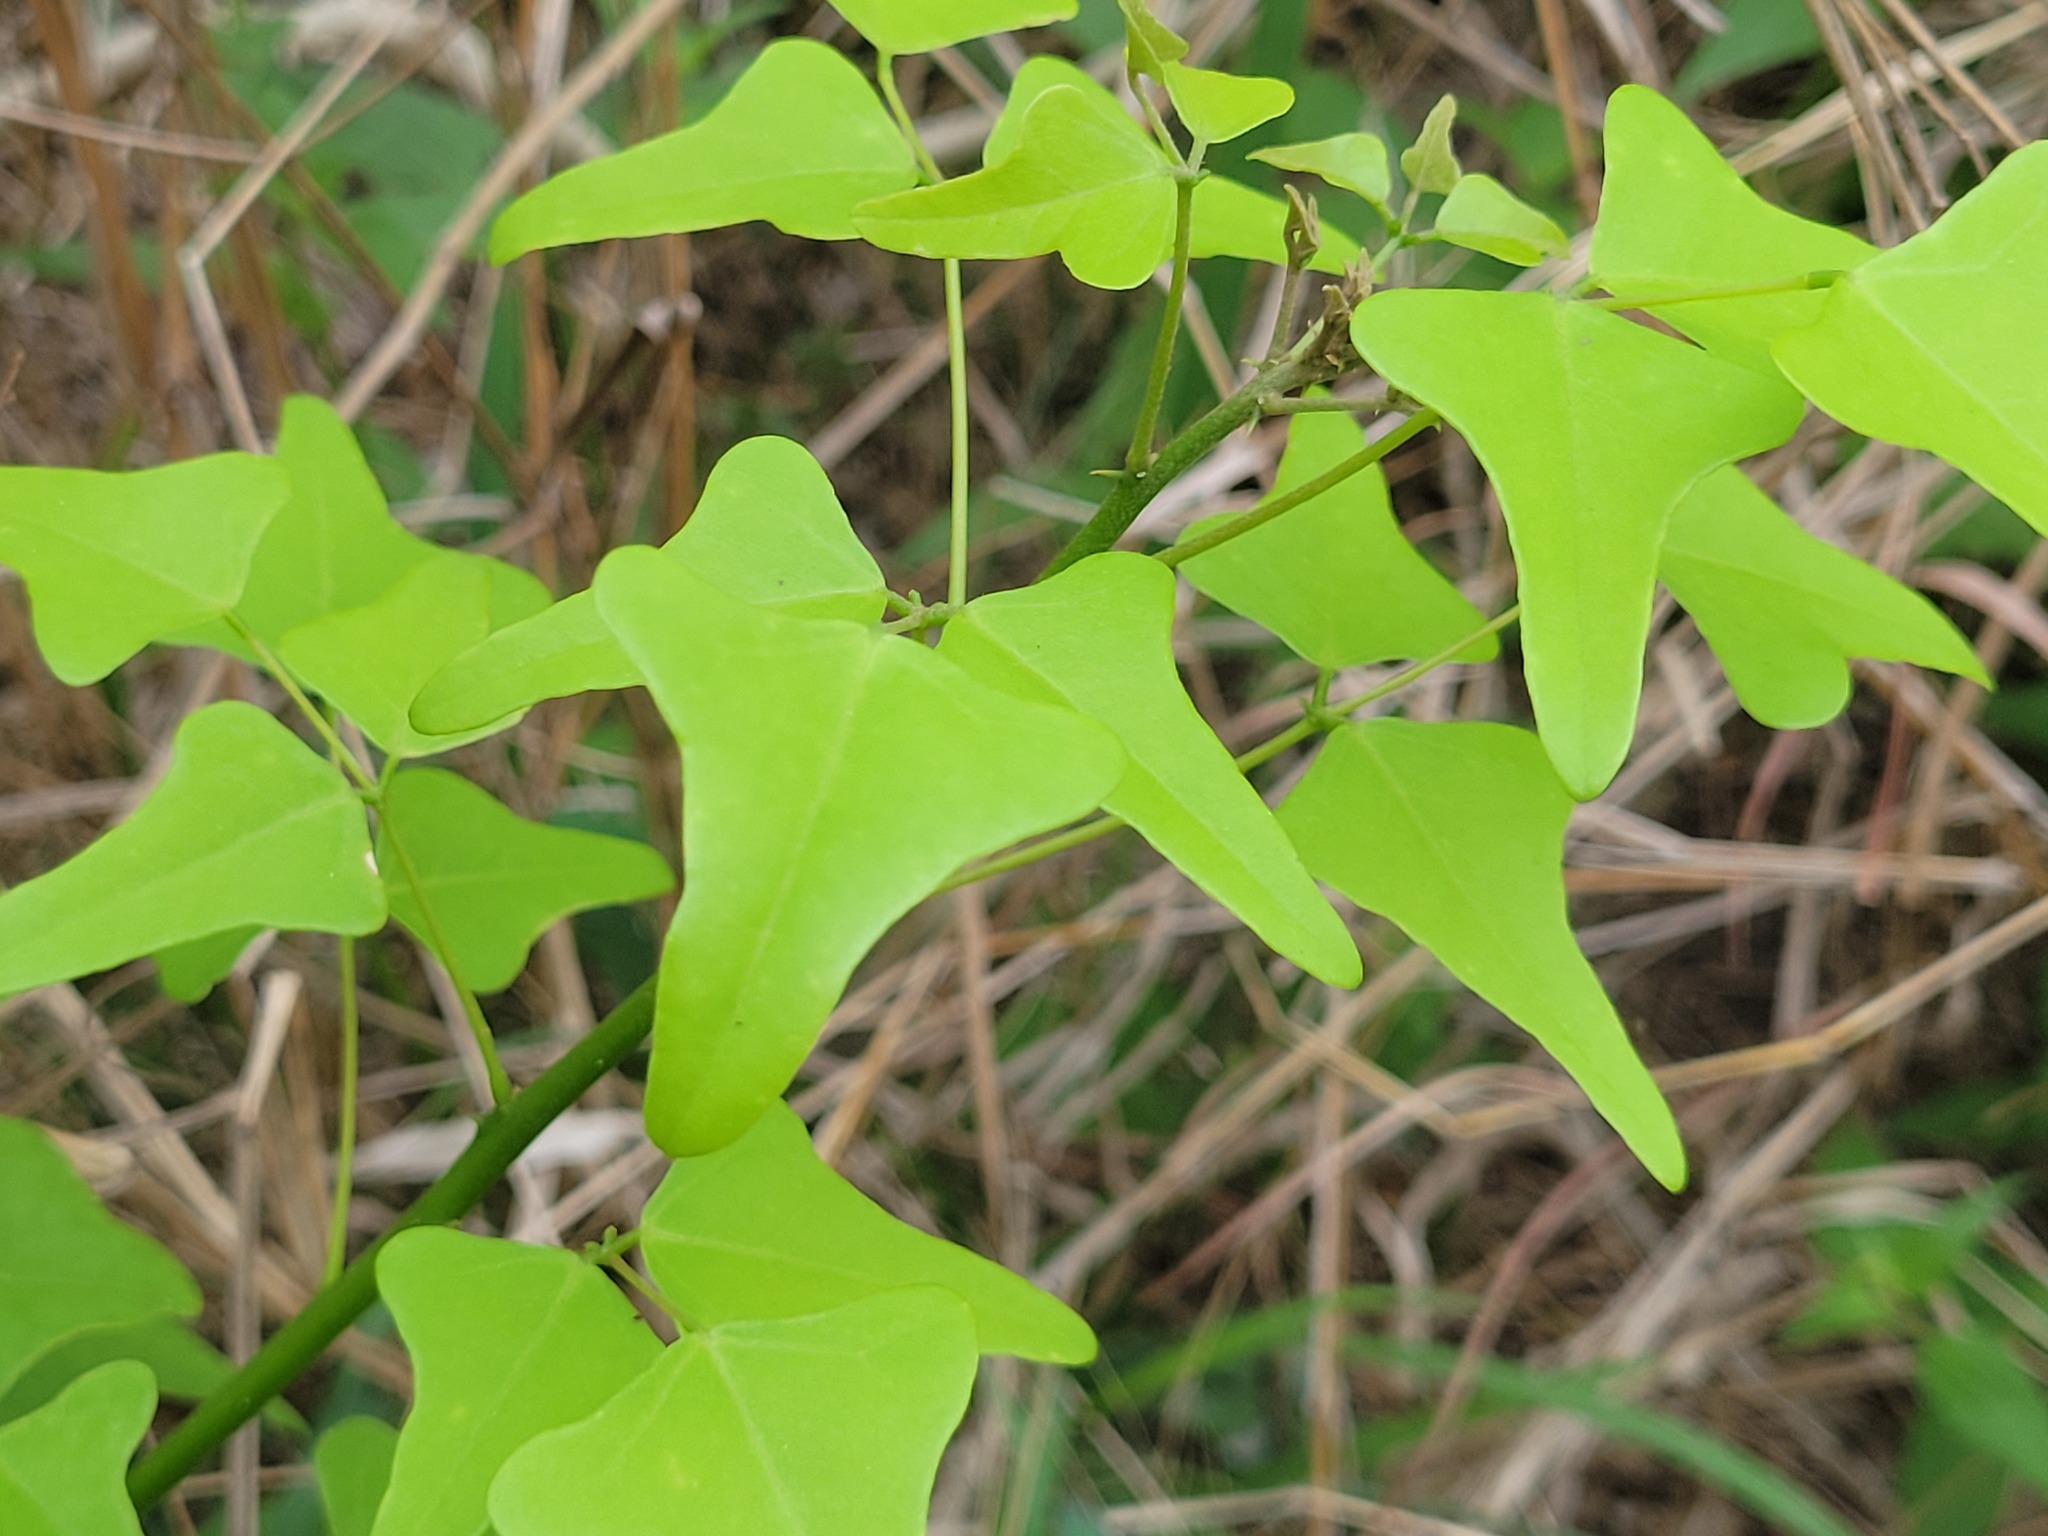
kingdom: Plantae
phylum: Tracheophyta
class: Magnoliopsida
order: Fabales
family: Fabaceae
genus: Erythrina
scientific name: Erythrina herbacea
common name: Coral-bean
